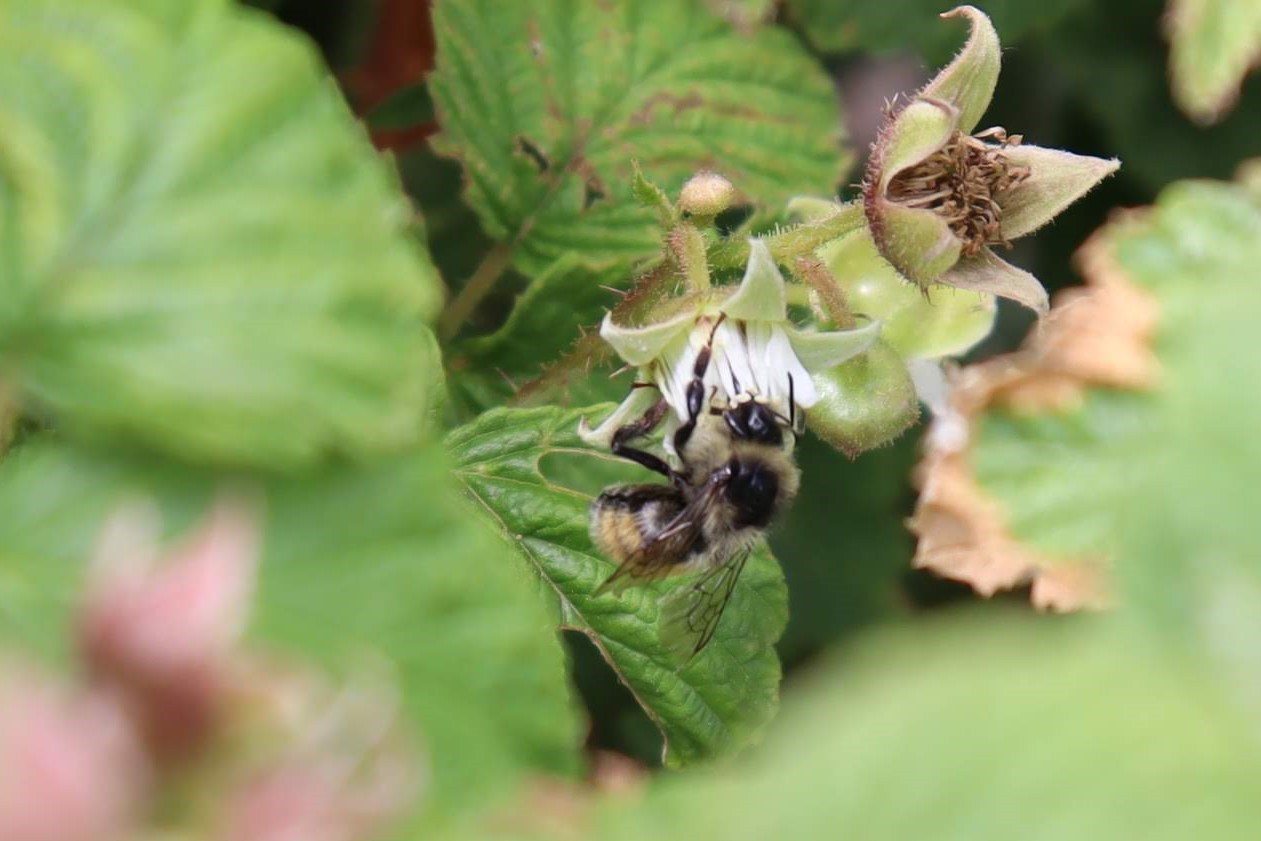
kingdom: Animalia
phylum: Arthropoda
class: Insecta
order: Hymenoptera
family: Apidae
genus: Pyrobombus
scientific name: Pyrobombus
